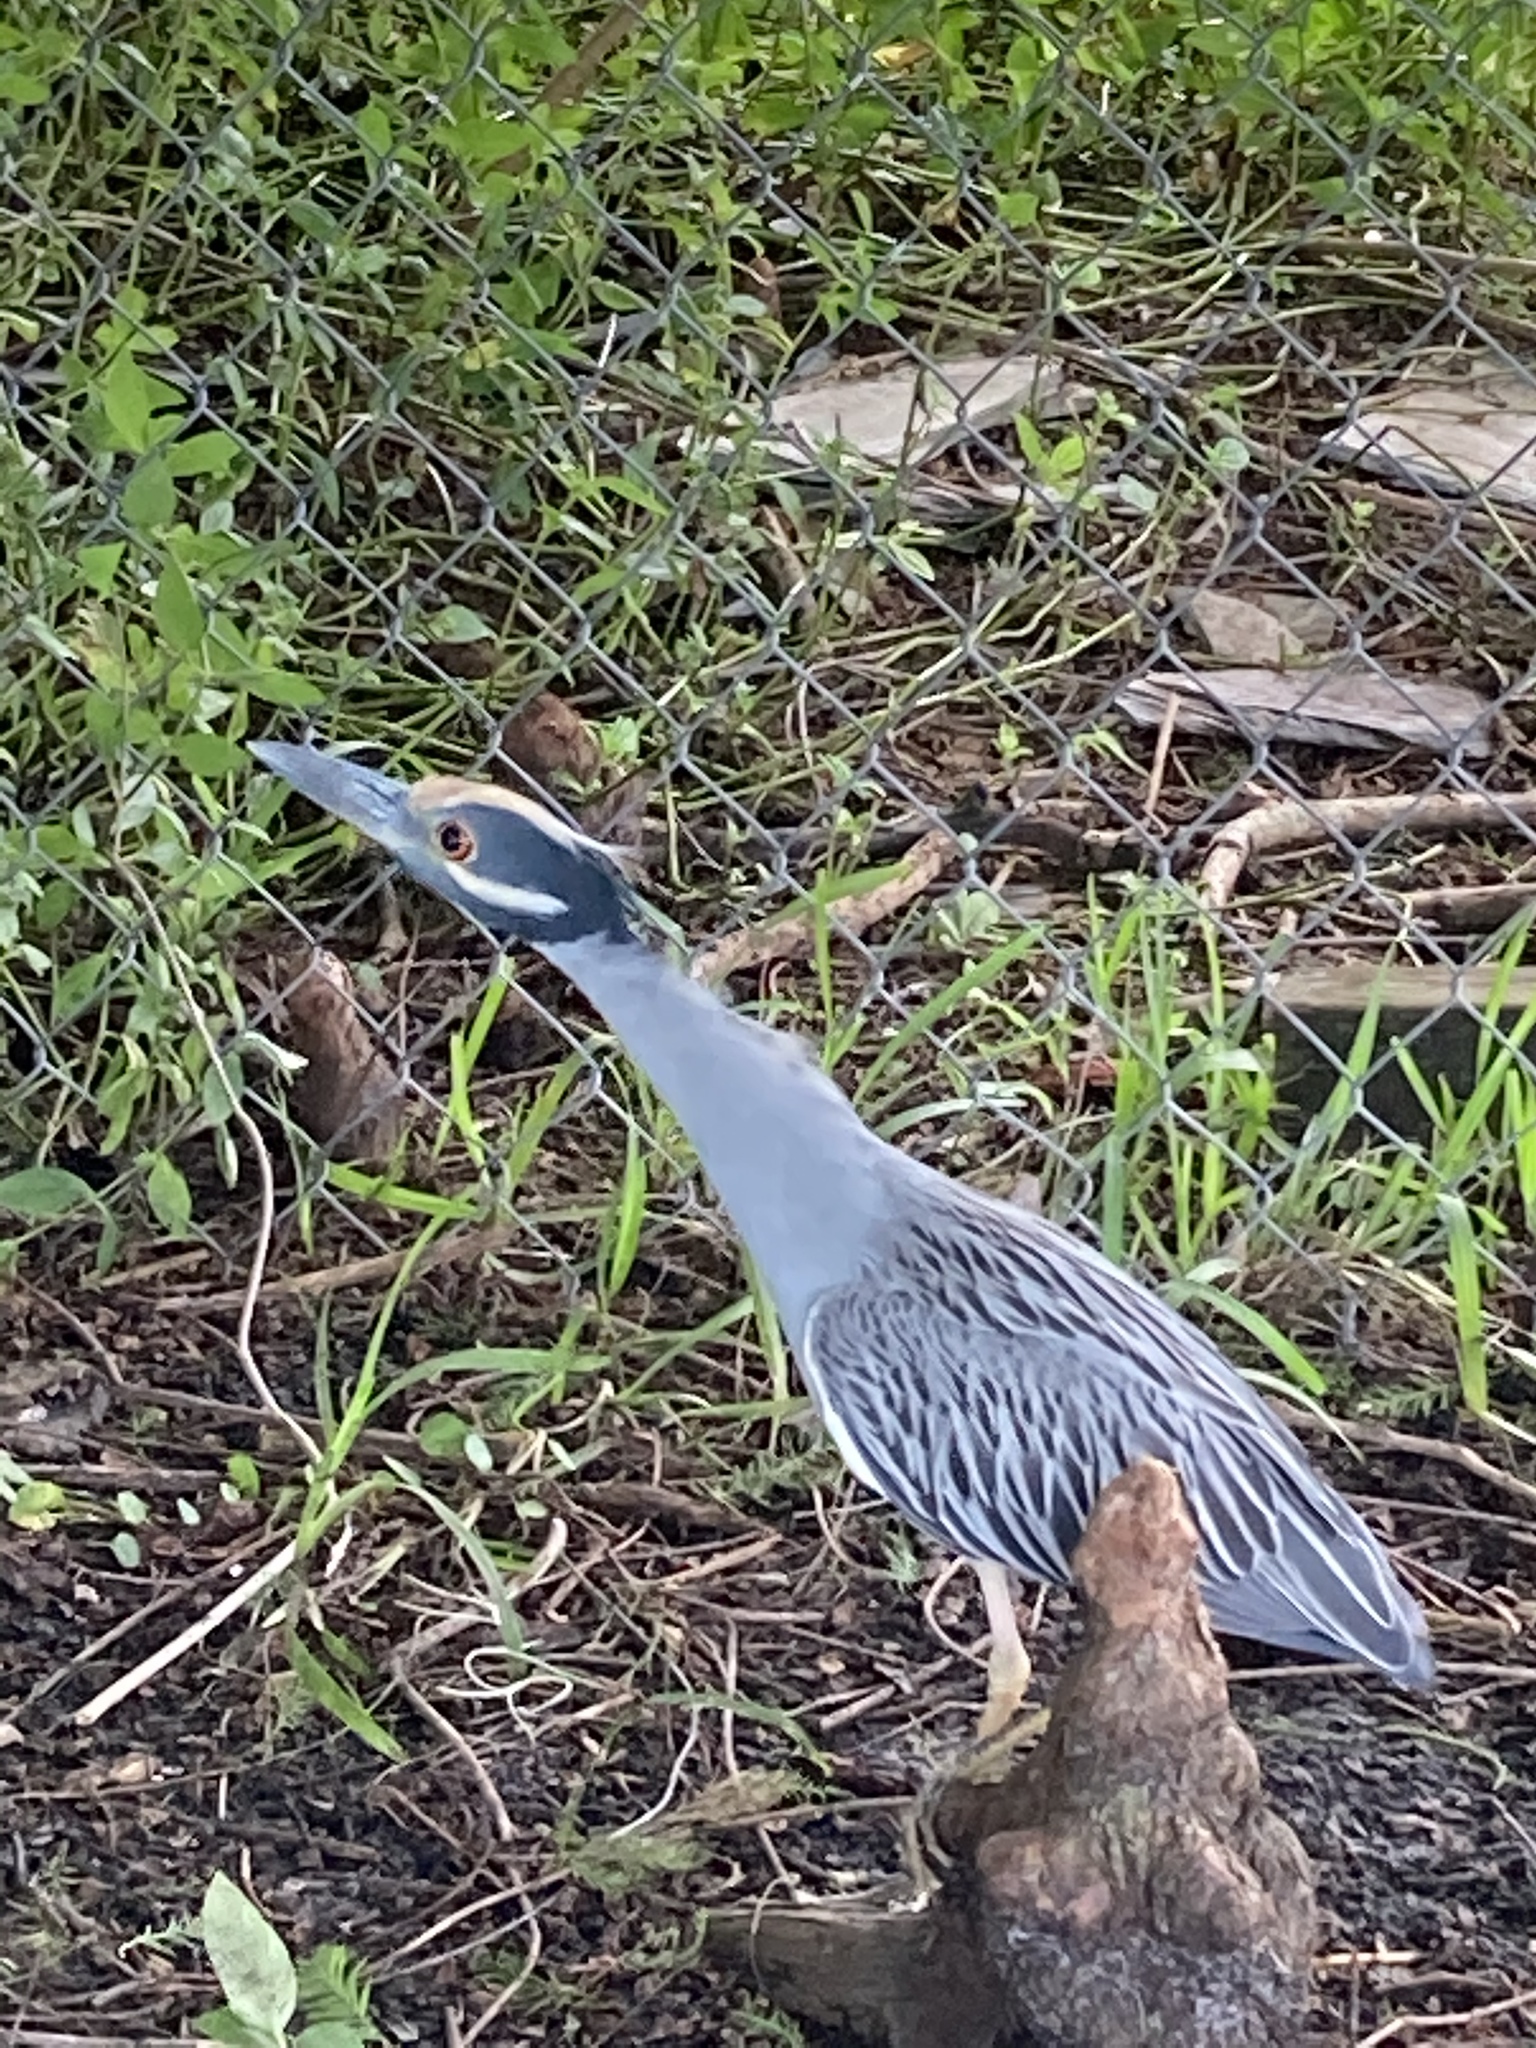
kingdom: Animalia
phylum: Chordata
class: Aves
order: Pelecaniformes
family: Ardeidae
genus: Nyctanassa
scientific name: Nyctanassa violacea
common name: Yellow-crowned night heron
